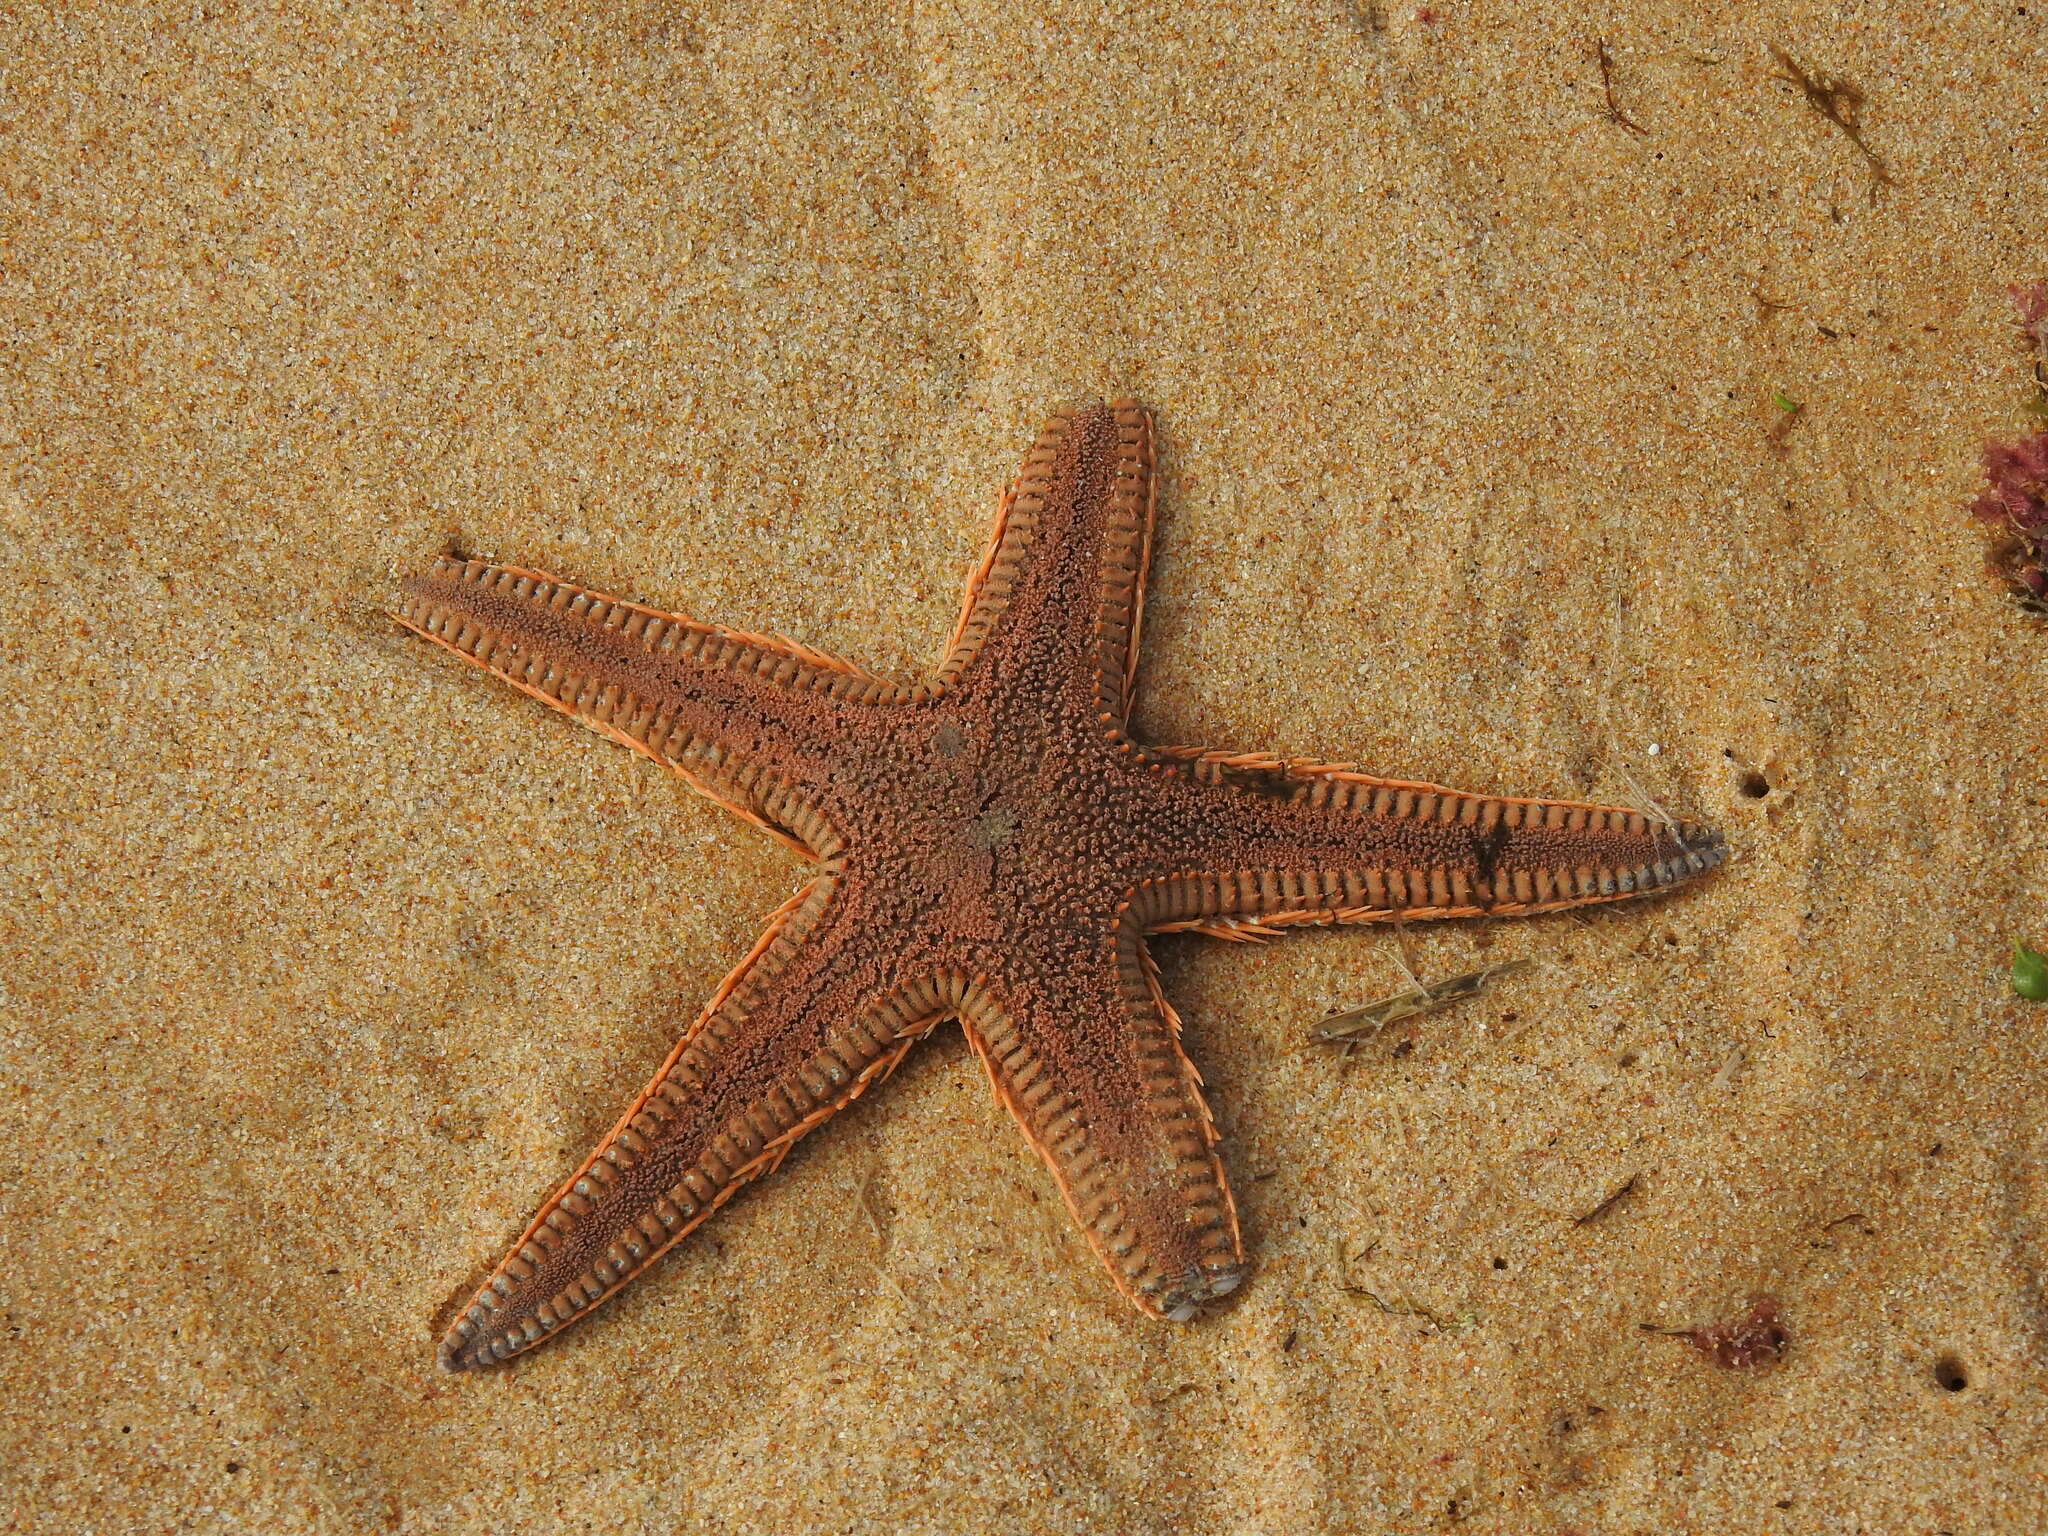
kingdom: Animalia
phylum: Echinodermata
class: Asteroidea
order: Paxillosida
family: Astropectinidae
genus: Astropecten
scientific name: Astropecten aranciacus
